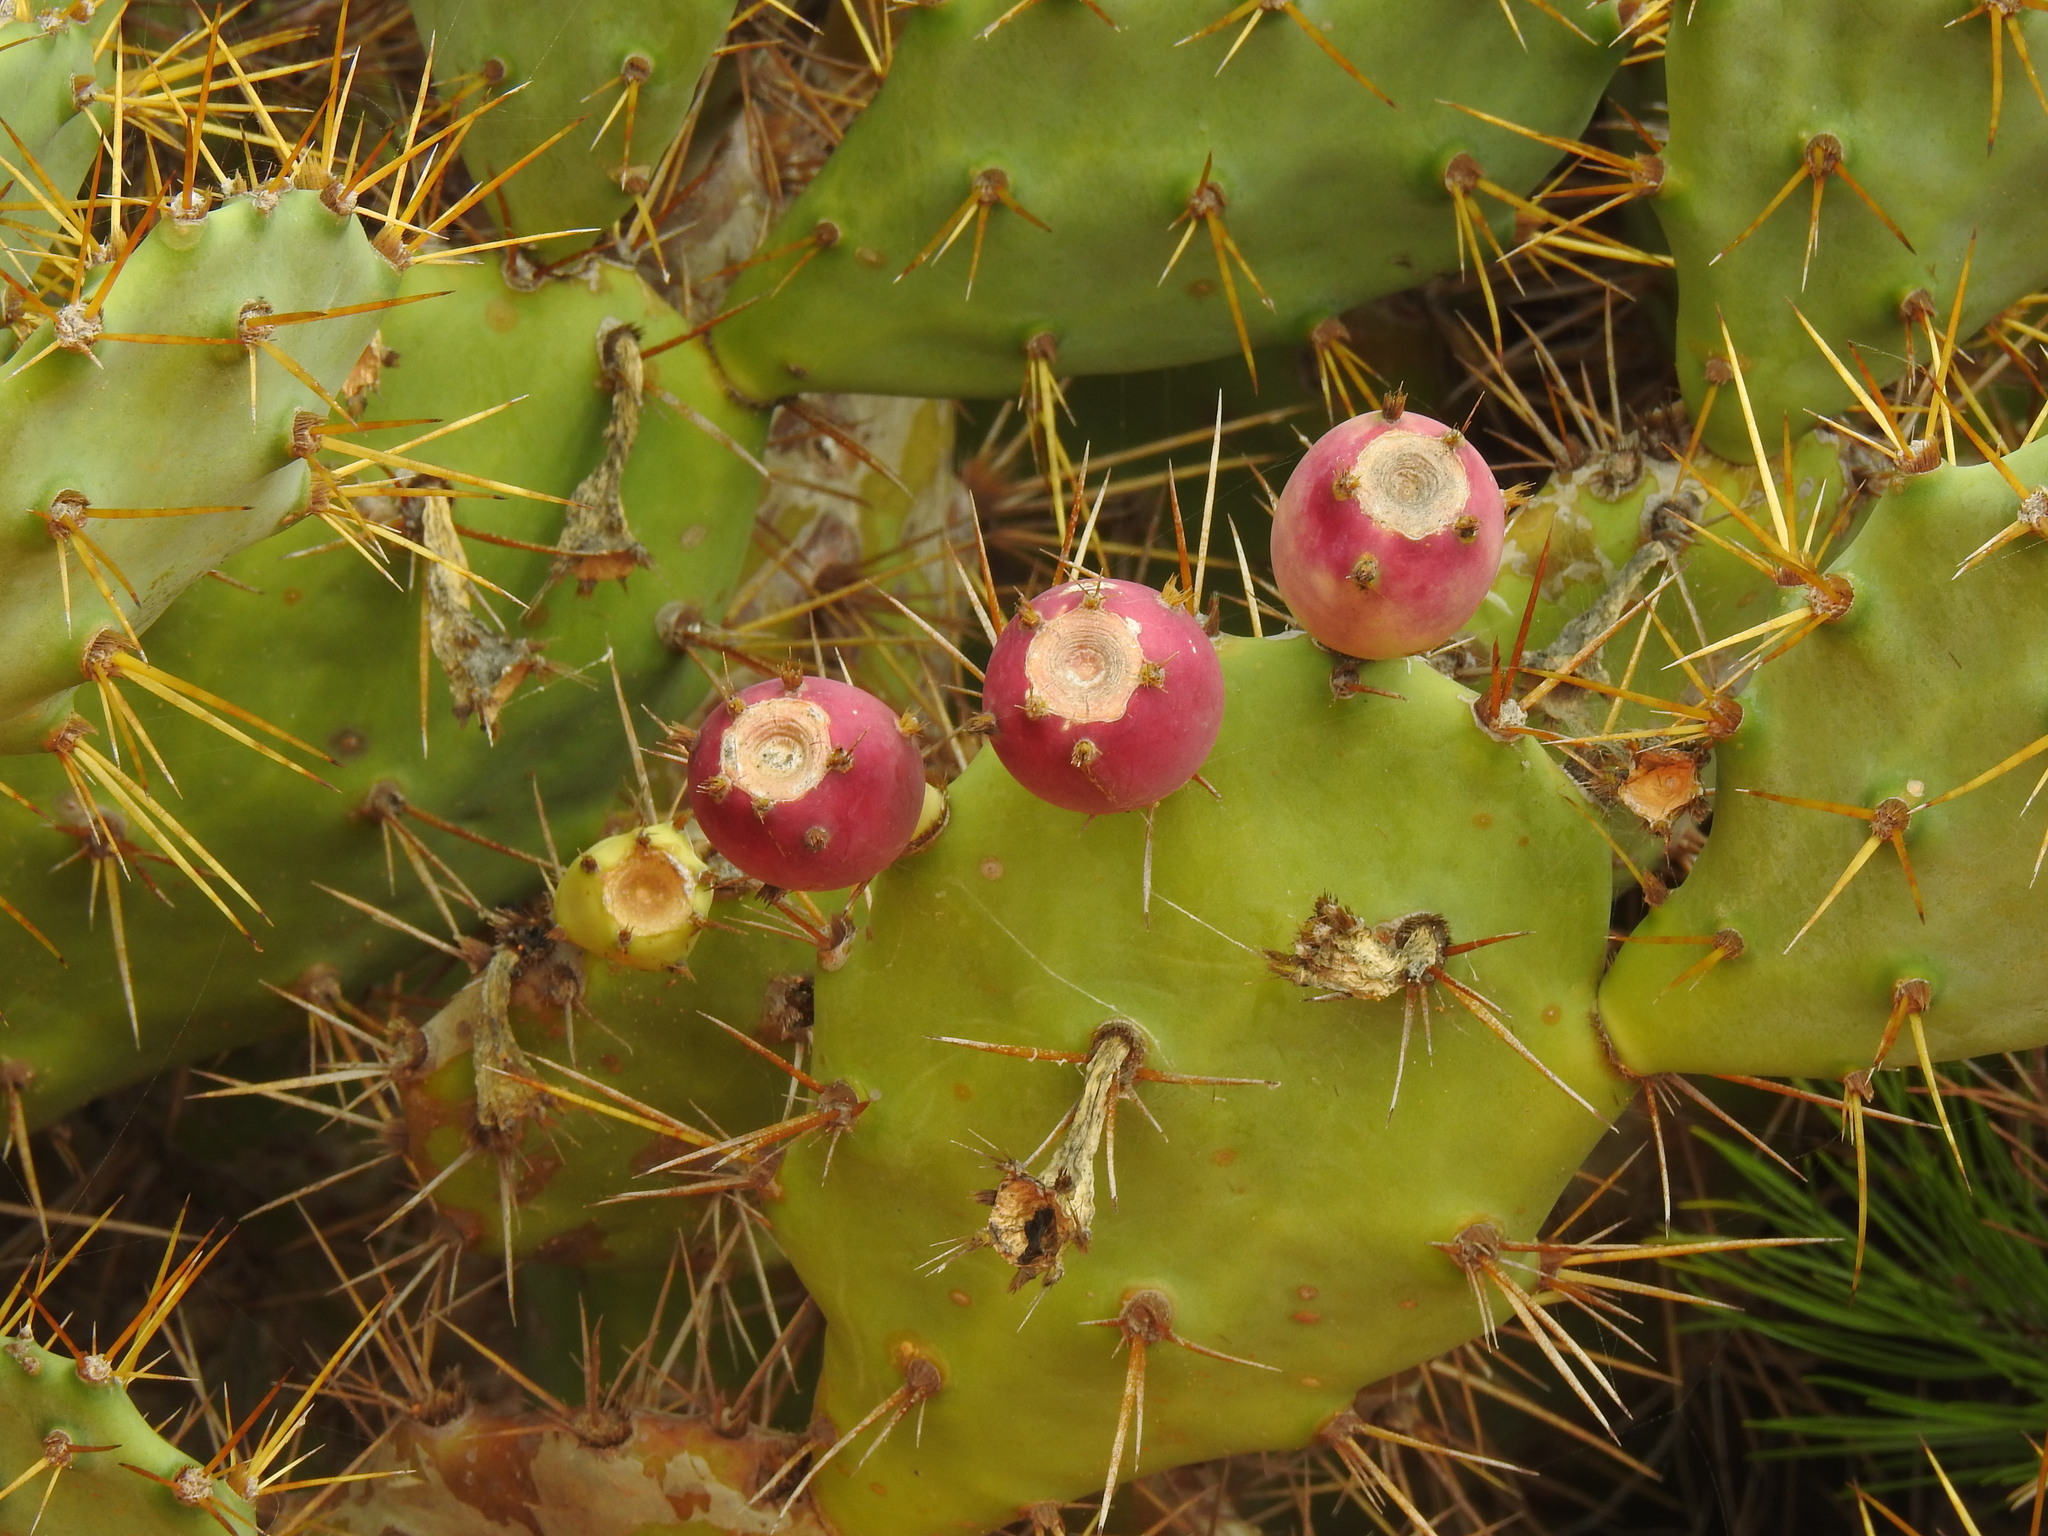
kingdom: Plantae
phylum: Tracheophyta
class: Magnoliopsida
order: Caryophyllales
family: Cactaceae
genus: Opuntia
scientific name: Opuntia stricta
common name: Erect pricklypear
